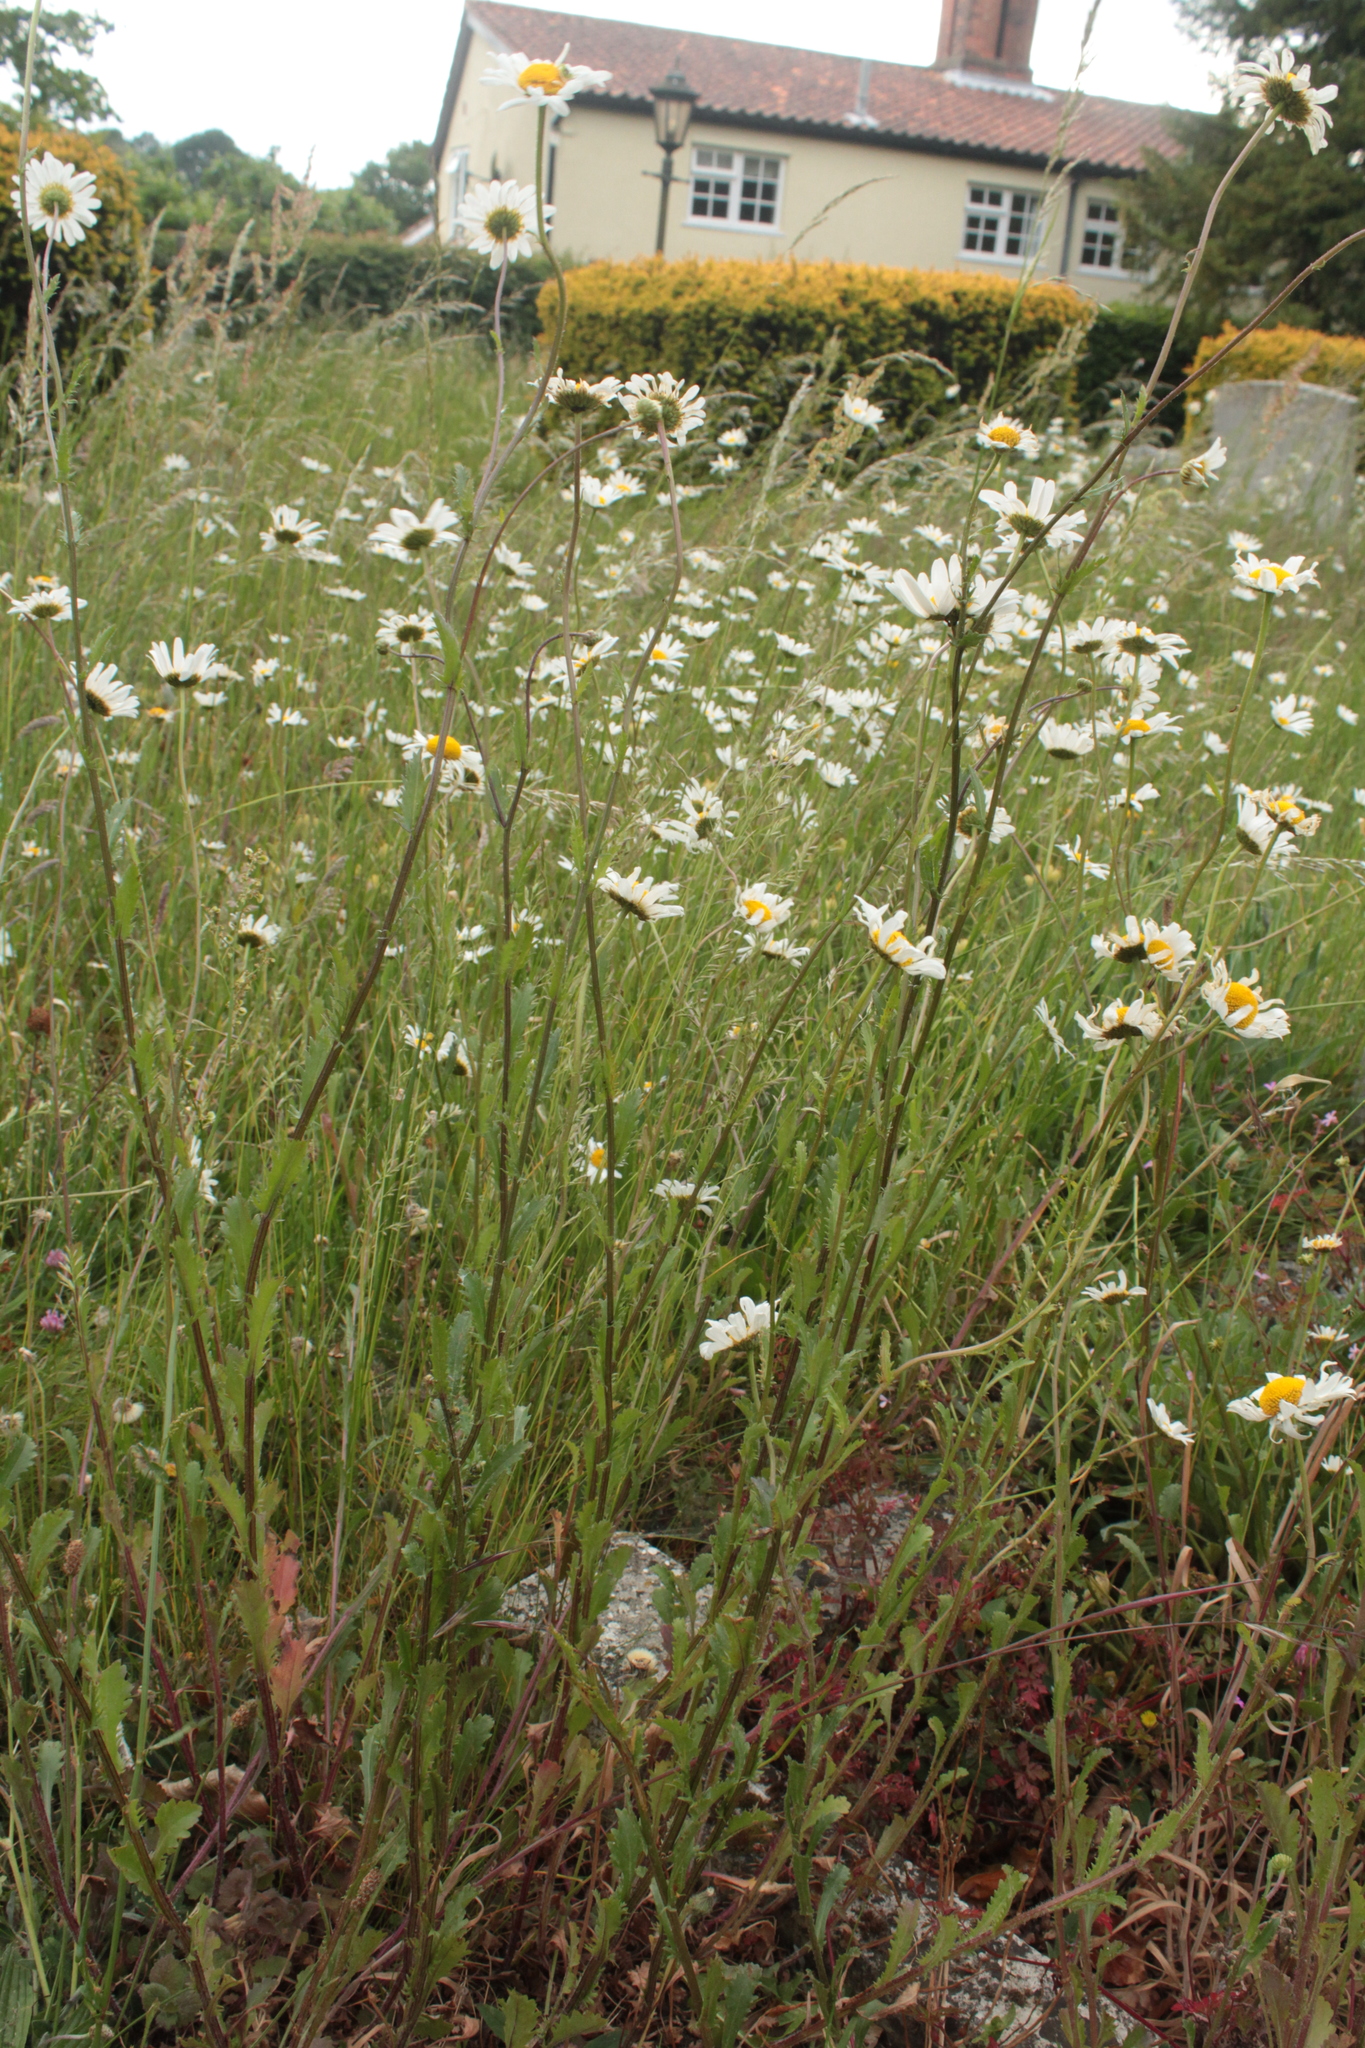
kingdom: Plantae
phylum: Tracheophyta
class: Magnoliopsida
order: Asterales
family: Asteraceae
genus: Leucanthemum
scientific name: Leucanthemum vulgare
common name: Oxeye daisy
